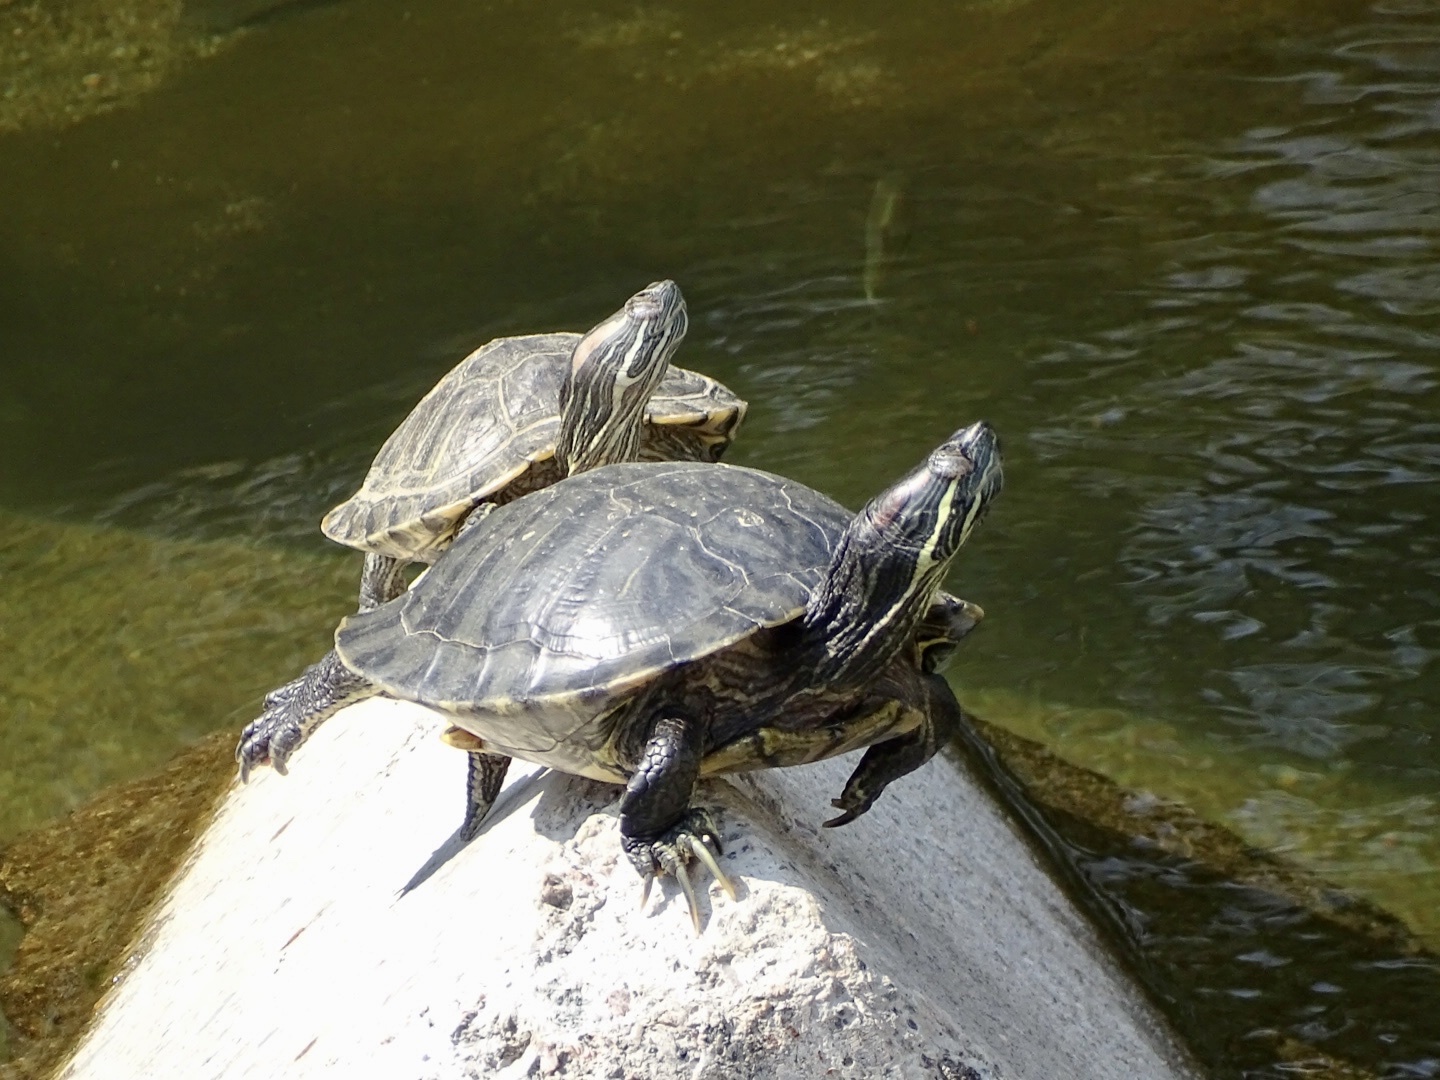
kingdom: Animalia
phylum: Chordata
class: Testudines
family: Emydidae
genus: Trachemys
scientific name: Trachemys scripta
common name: Slider
